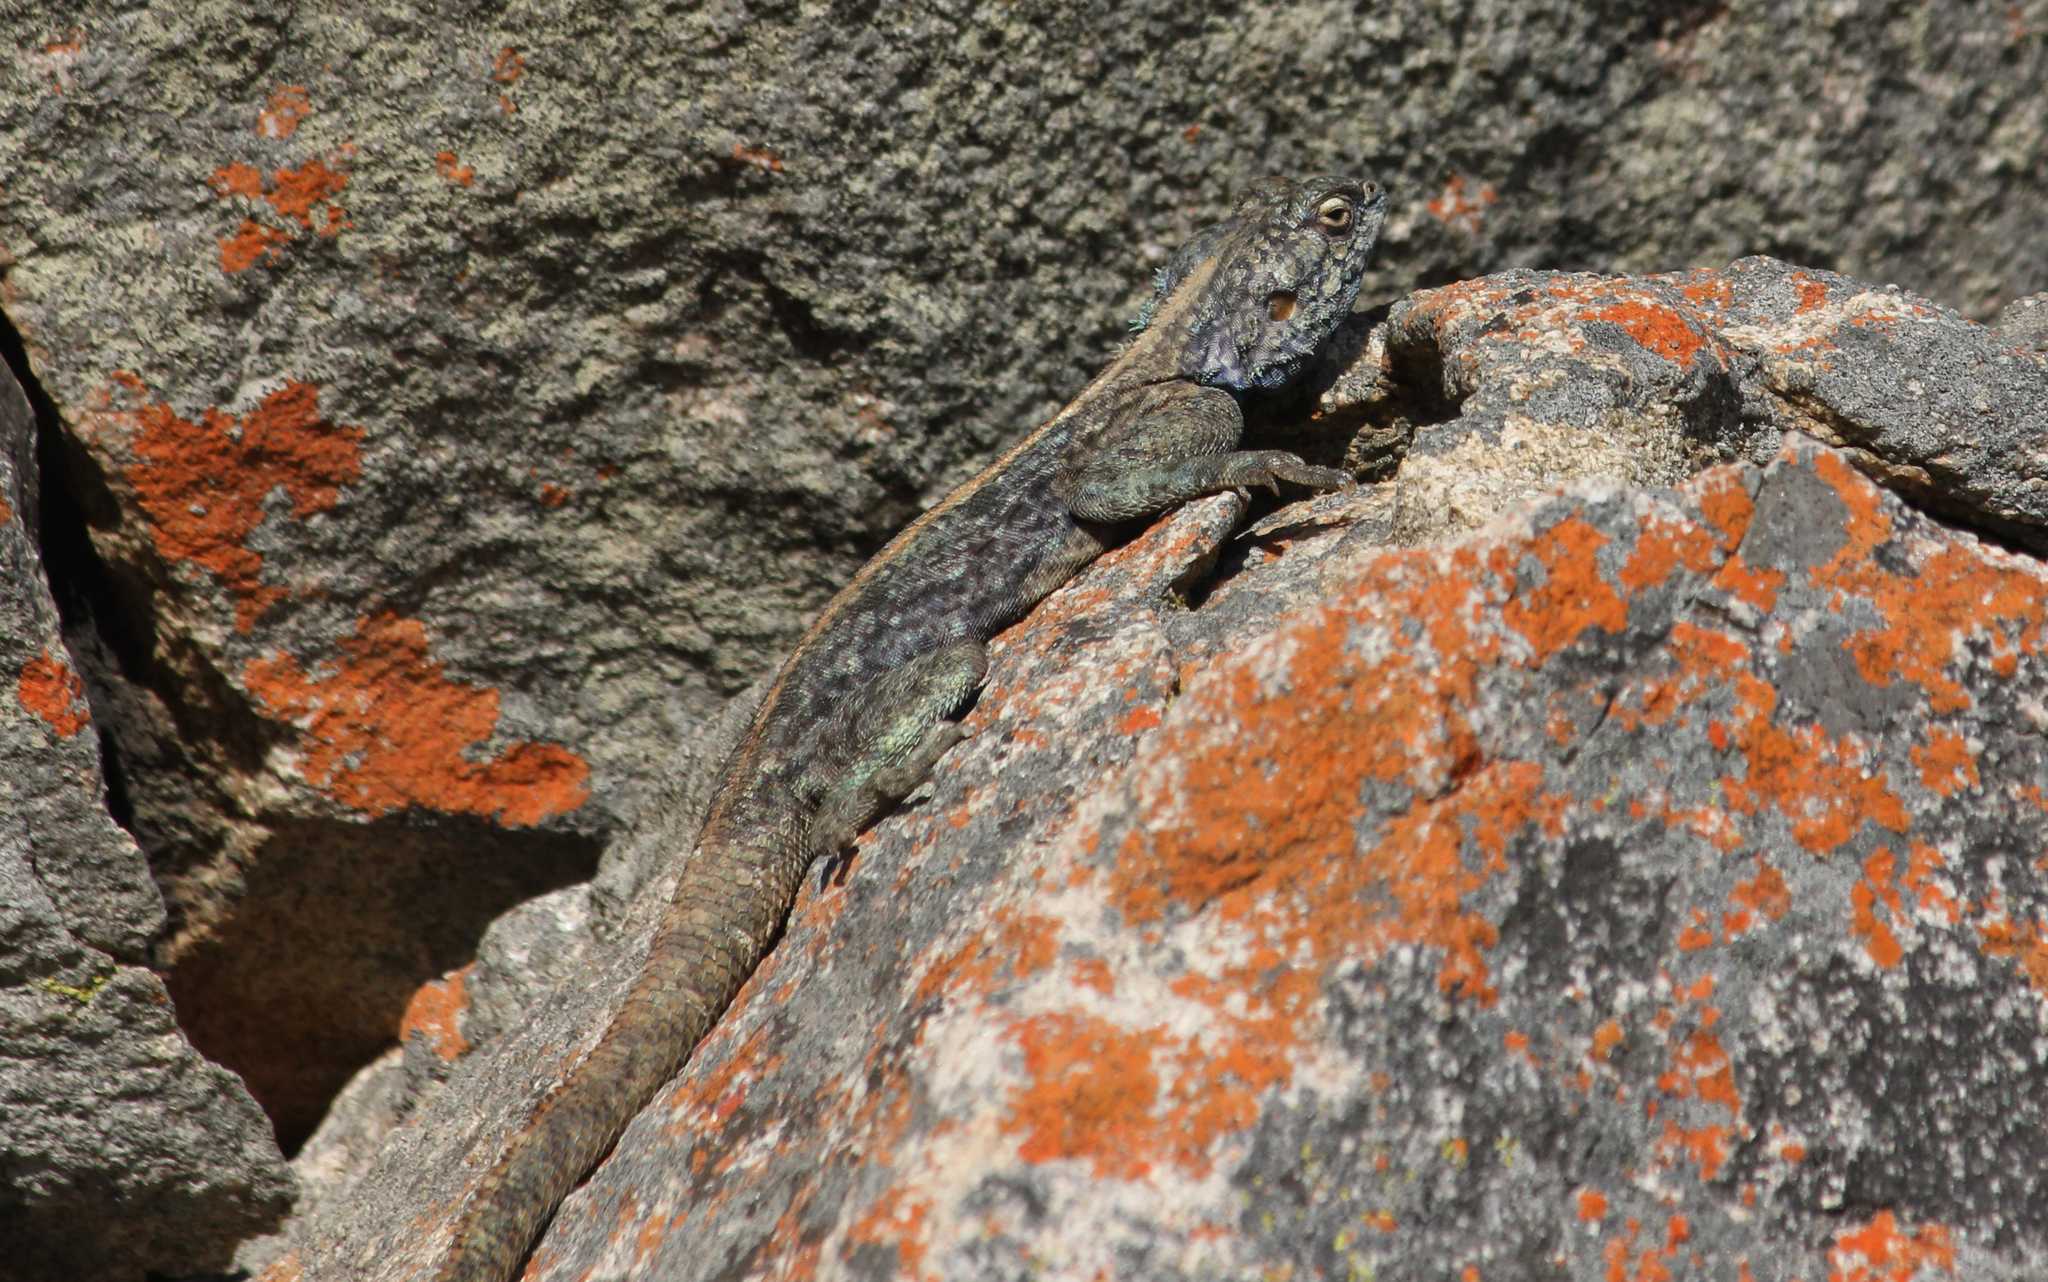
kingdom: Animalia
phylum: Chordata
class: Squamata
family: Agamidae
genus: Agama
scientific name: Agama atra
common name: Southern african rock agama
